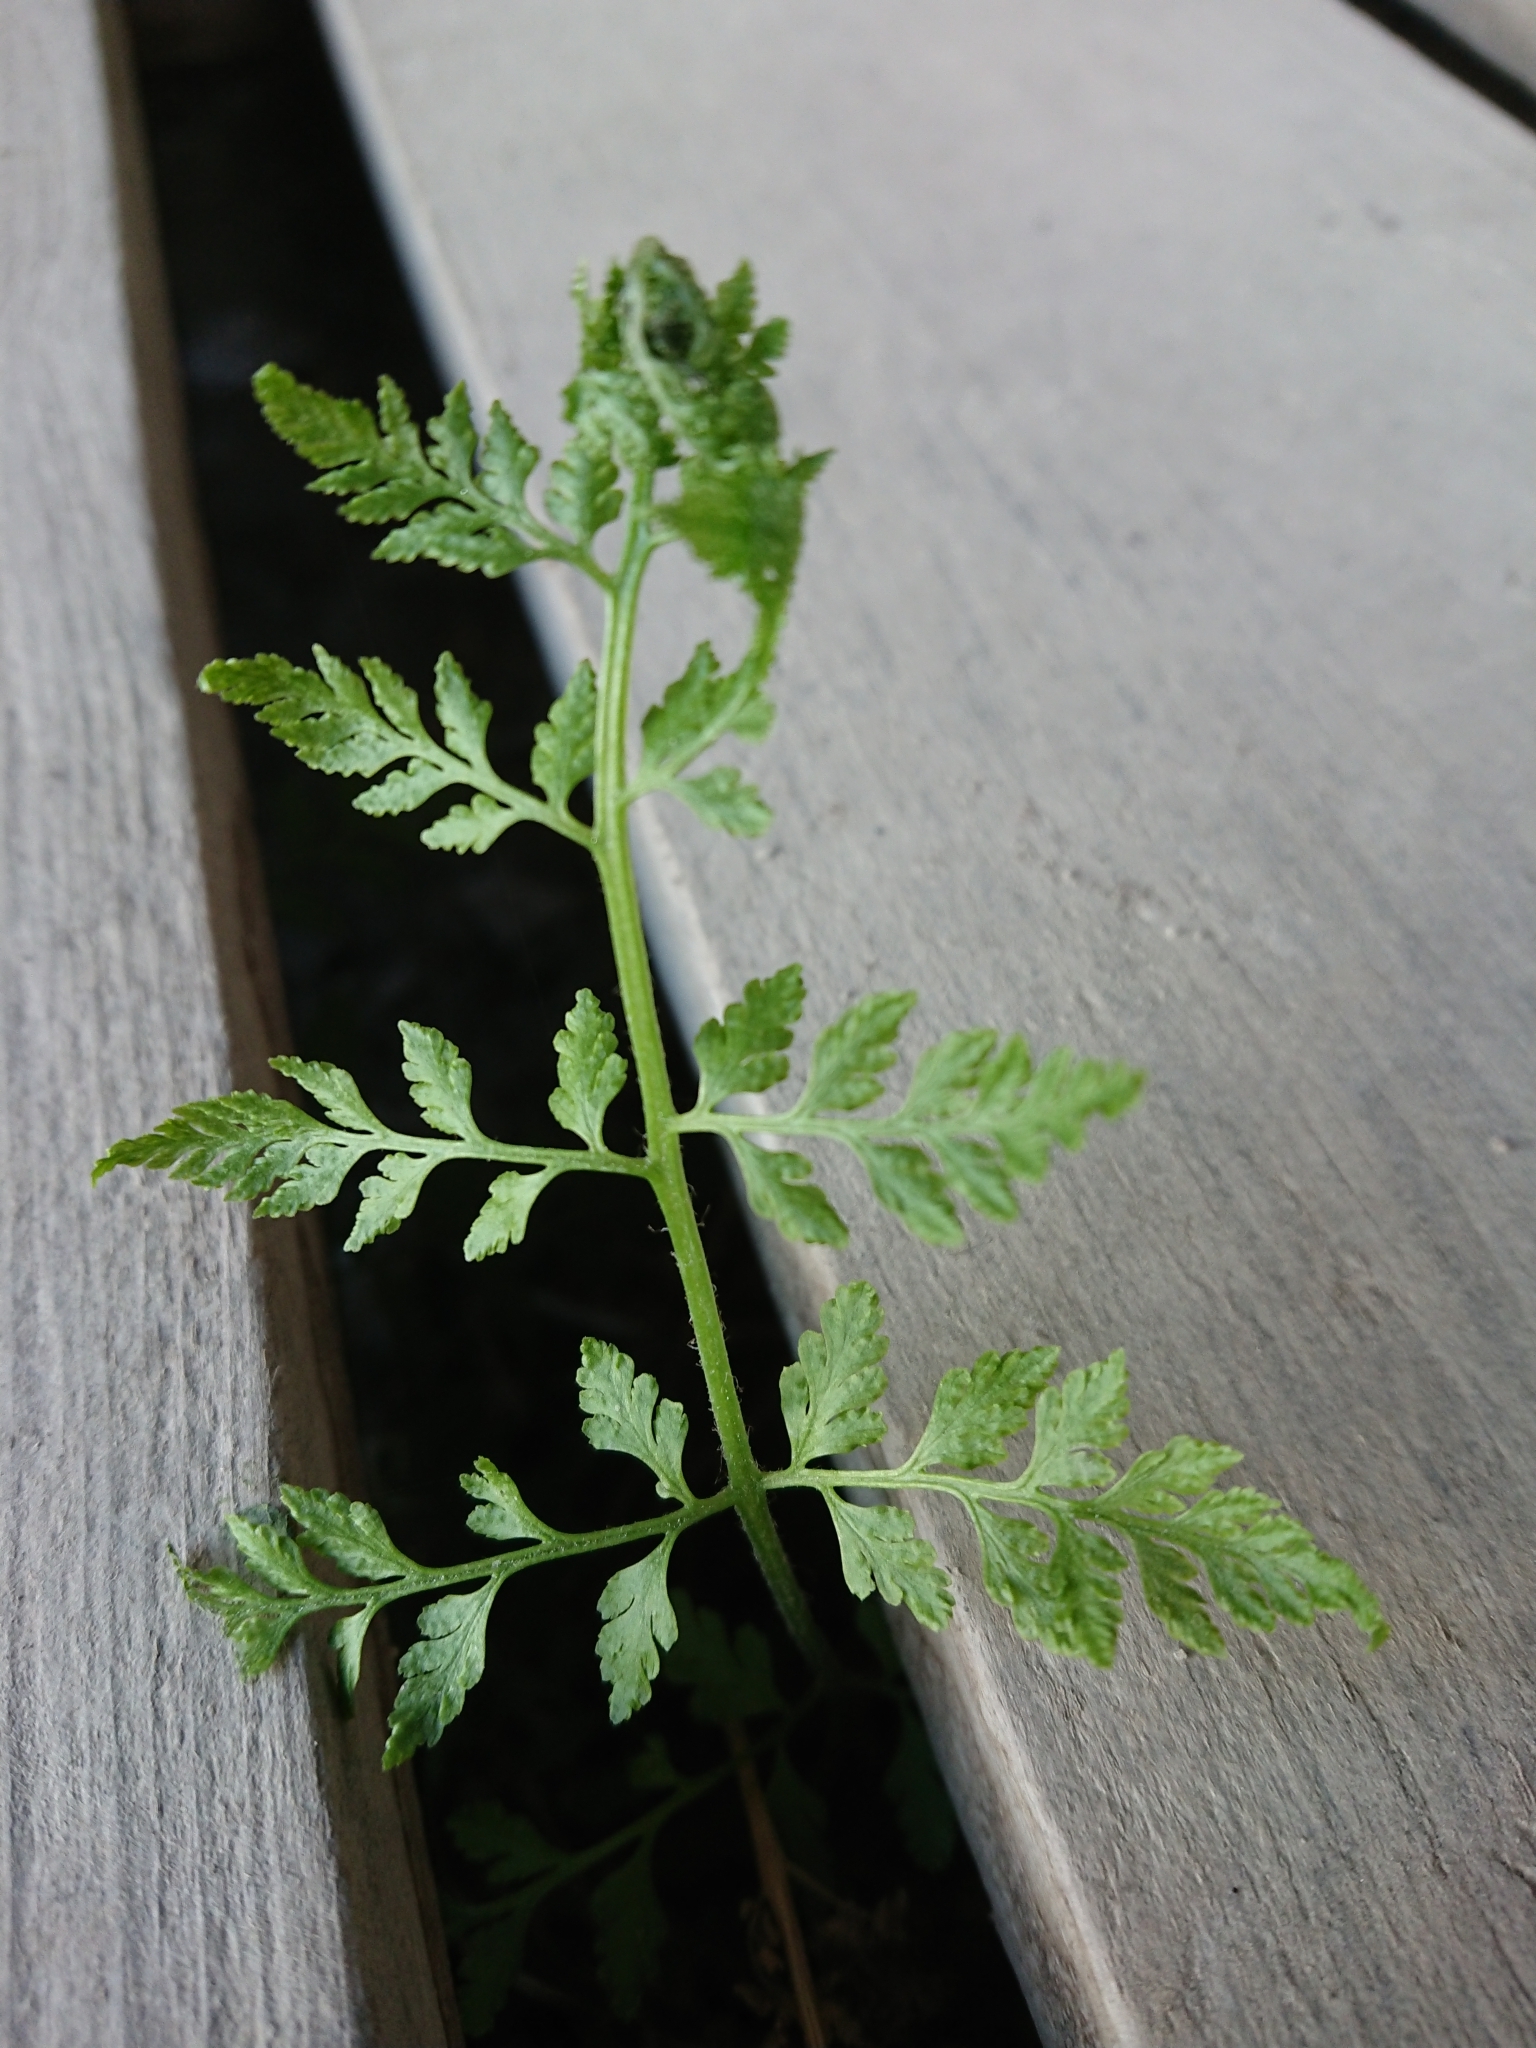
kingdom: Plantae
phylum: Tracheophyta
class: Polypodiopsida
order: Polypodiales
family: Cystopteridaceae
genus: Cystopteris
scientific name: Cystopteris fragilis
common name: Brittle bladder fern
